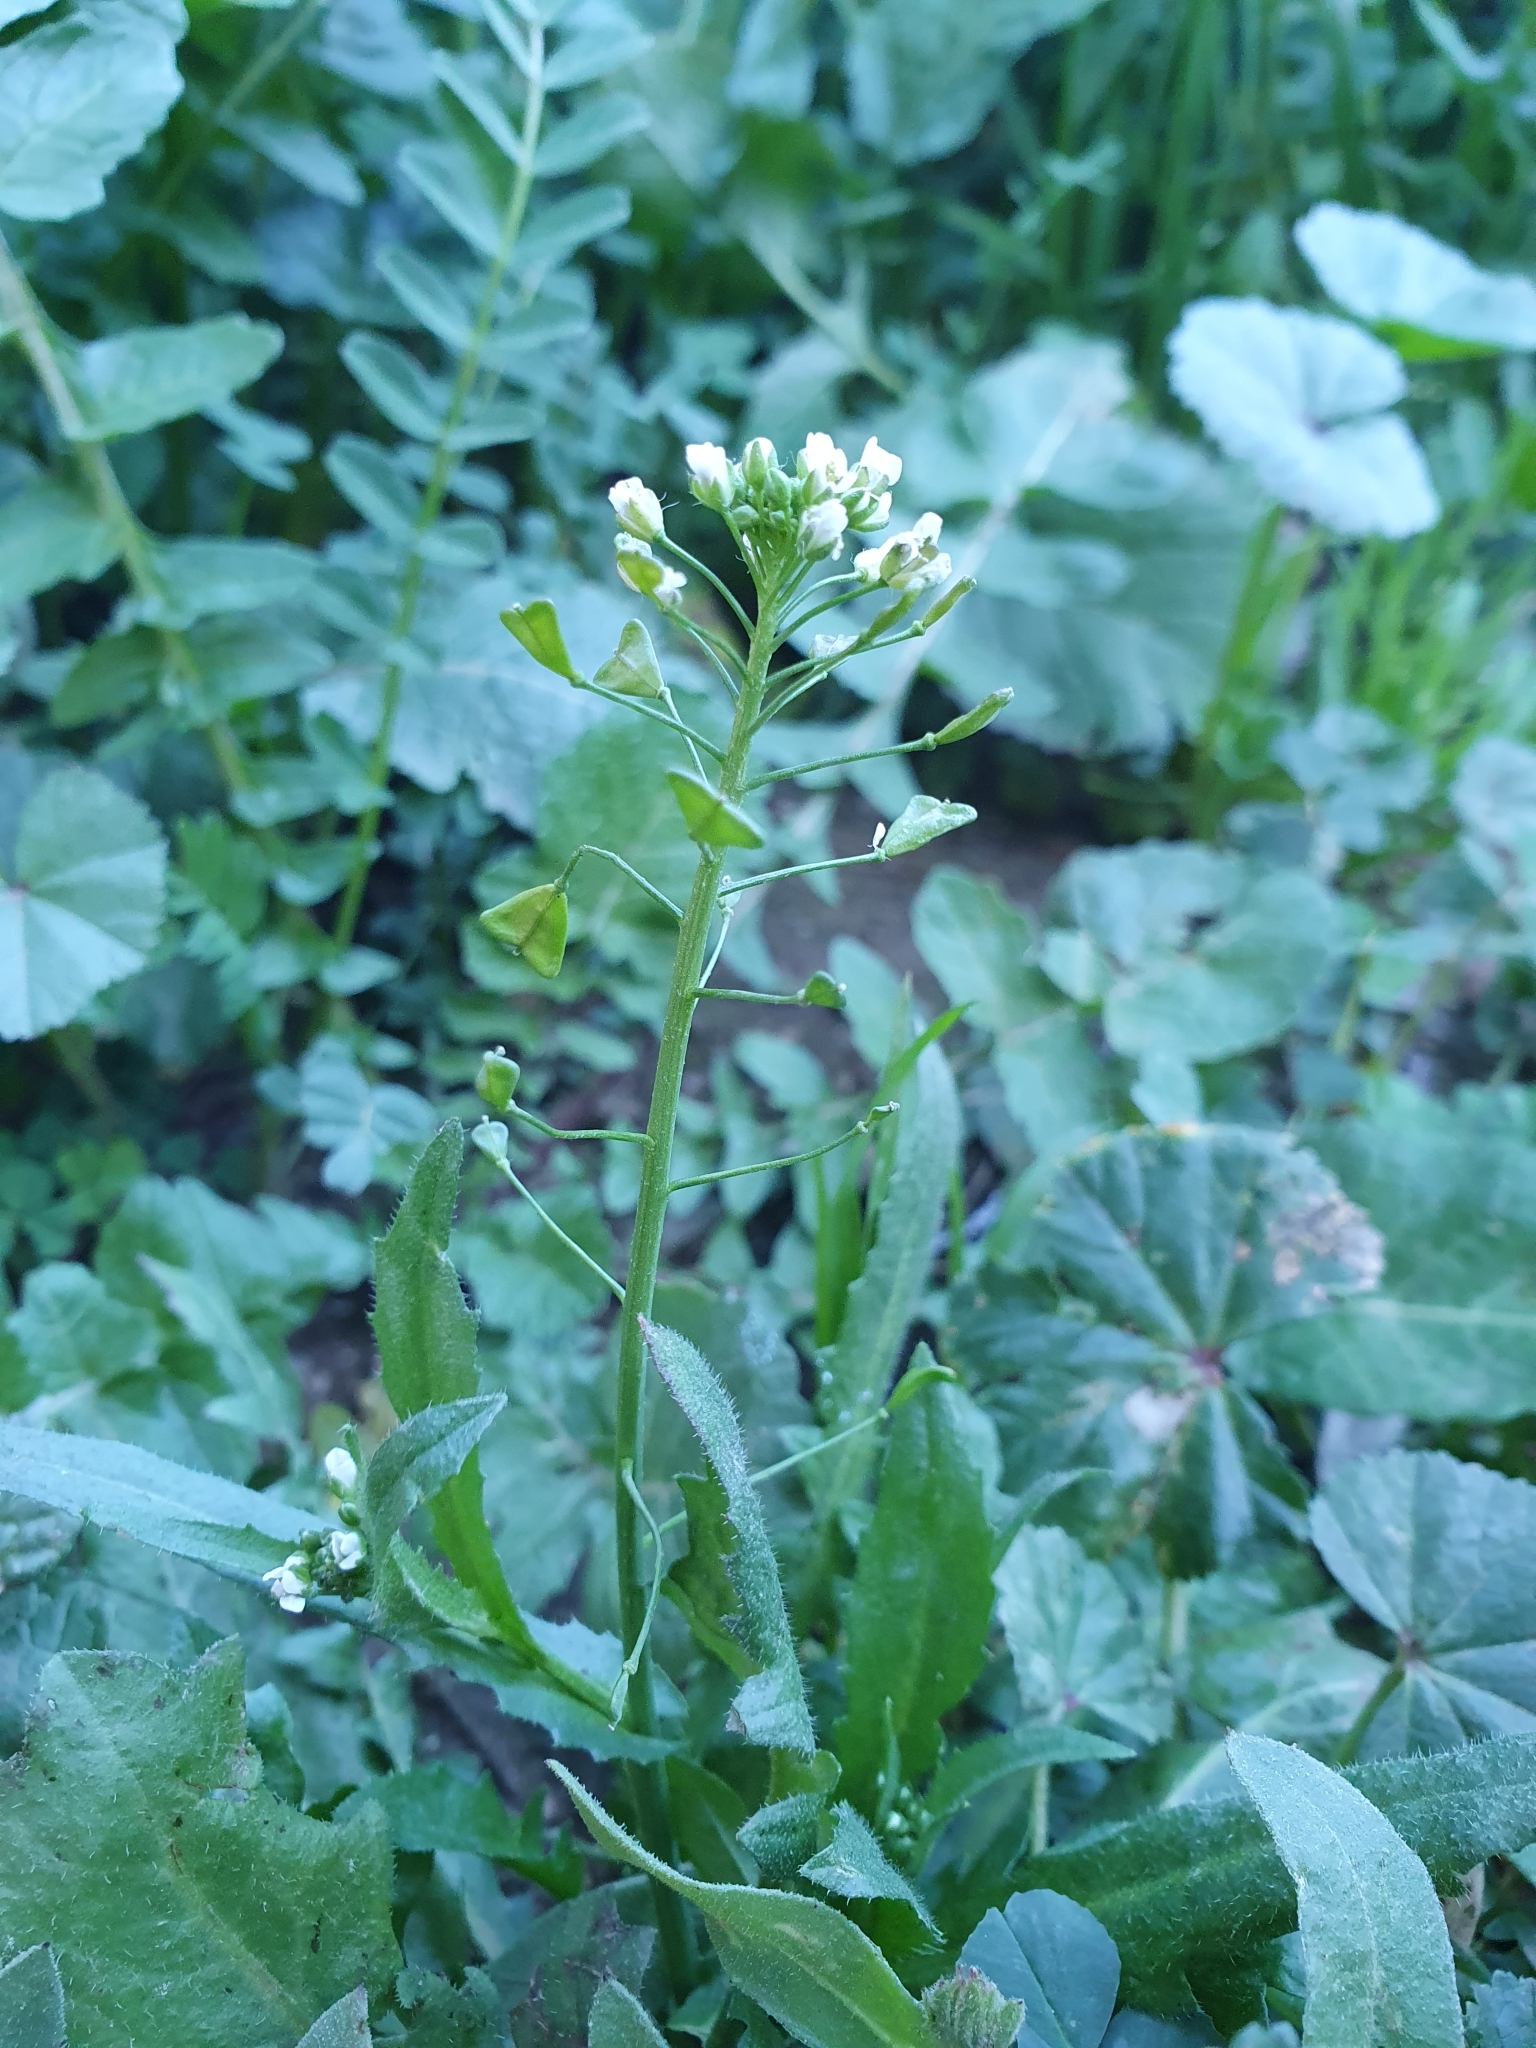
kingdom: Plantae
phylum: Tracheophyta
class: Magnoliopsida
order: Brassicales
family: Brassicaceae
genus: Capsella
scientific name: Capsella bursa-pastoris
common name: Shepherd's purse
